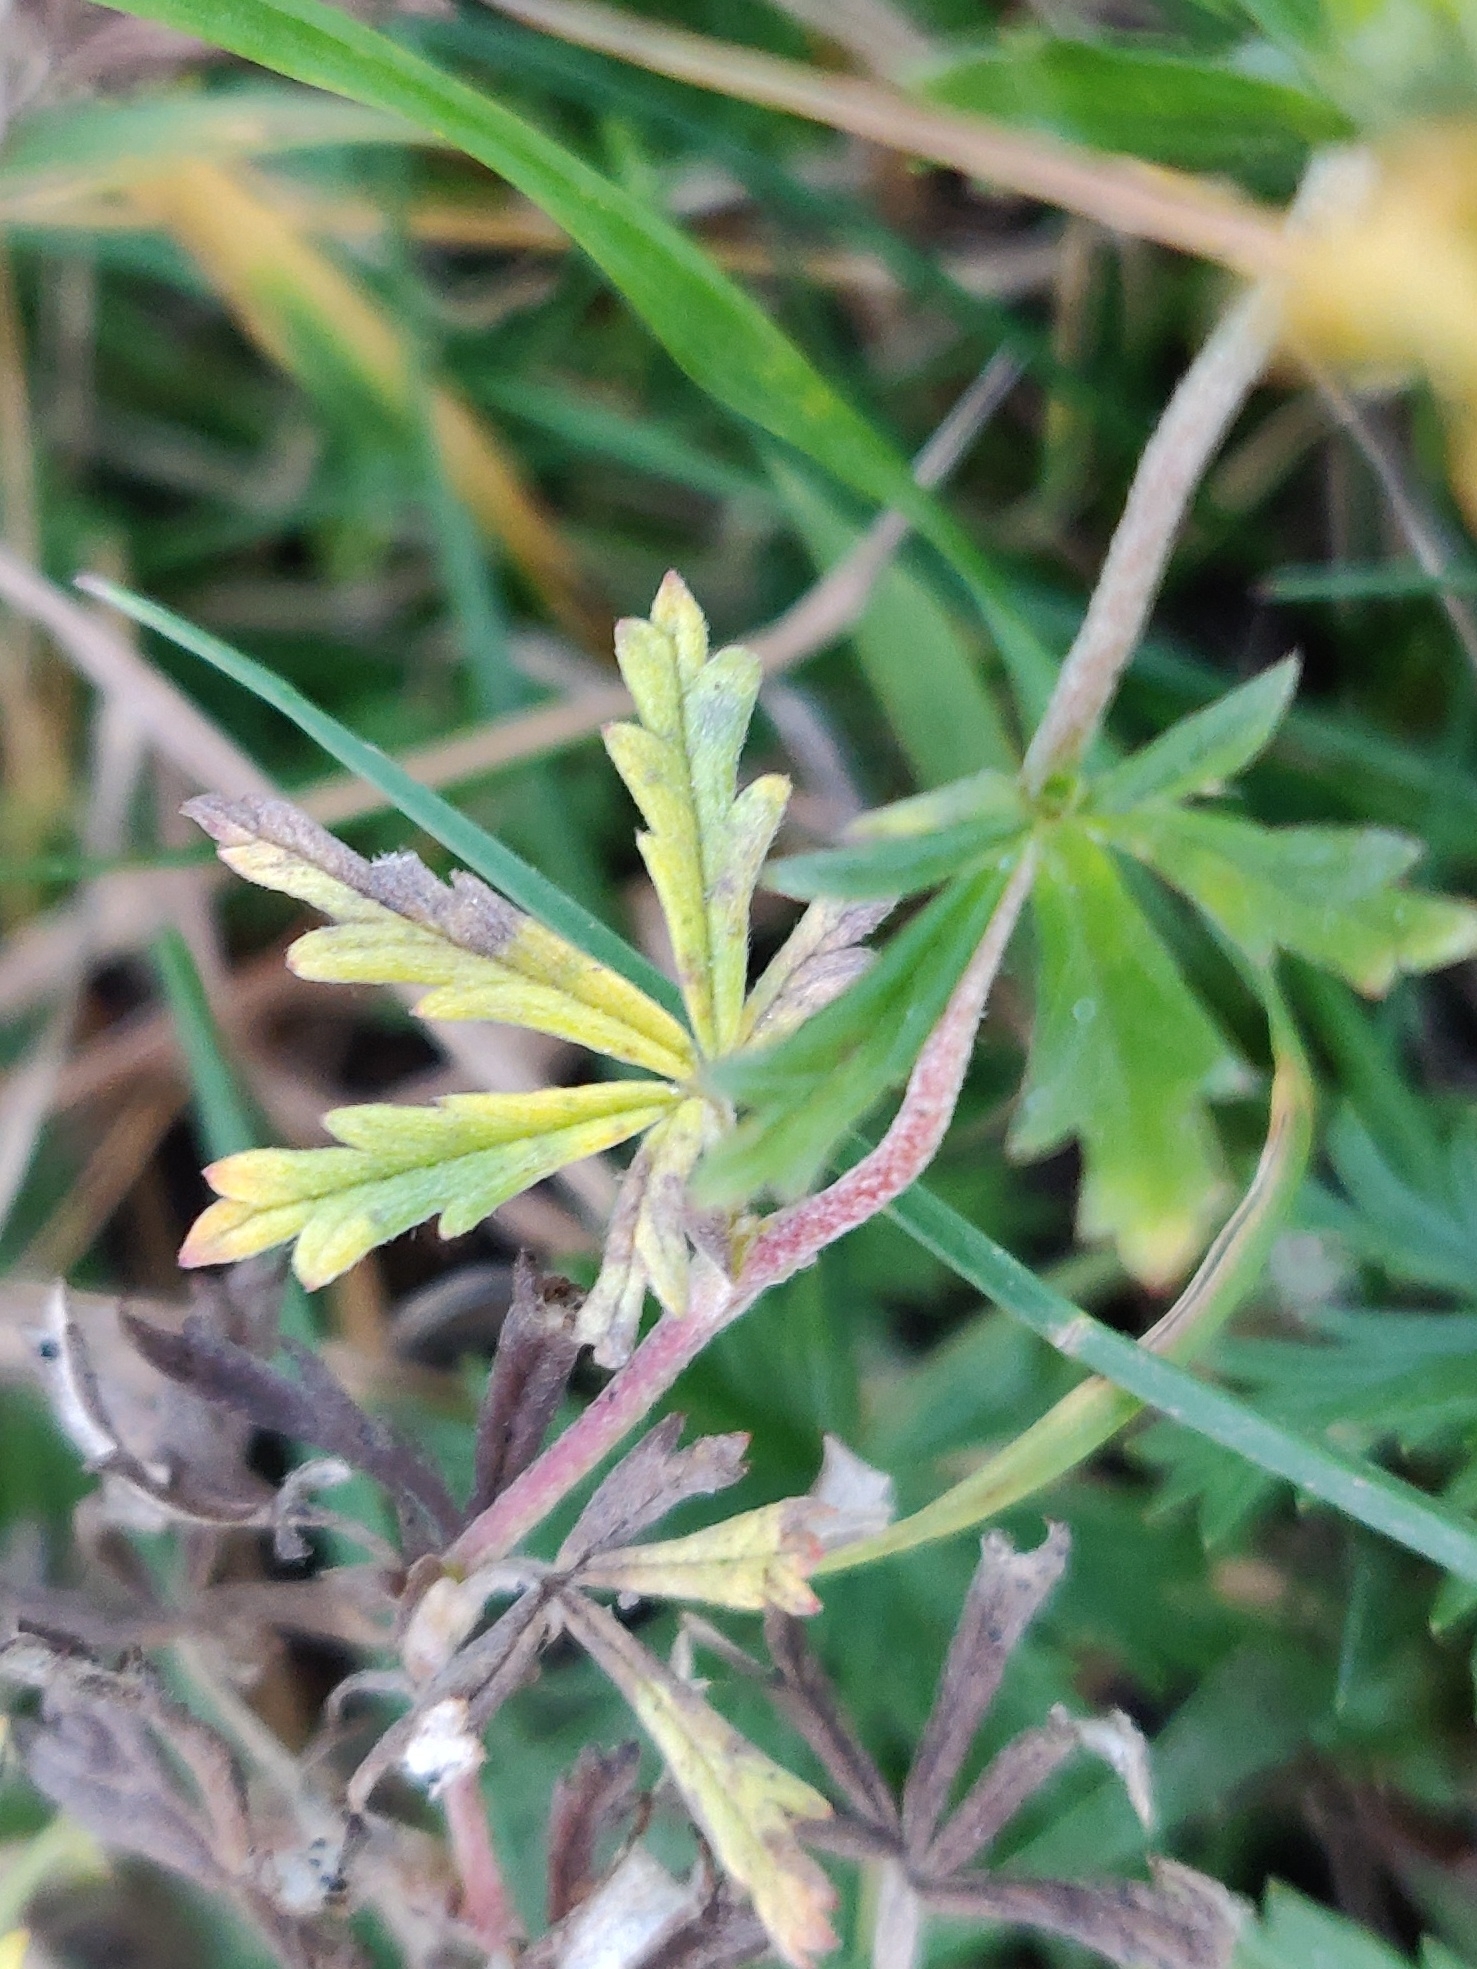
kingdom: Plantae
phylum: Tracheophyta
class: Magnoliopsida
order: Rosales
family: Rosaceae
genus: Potentilla
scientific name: Potentilla argentea
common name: Hoary cinquefoil
